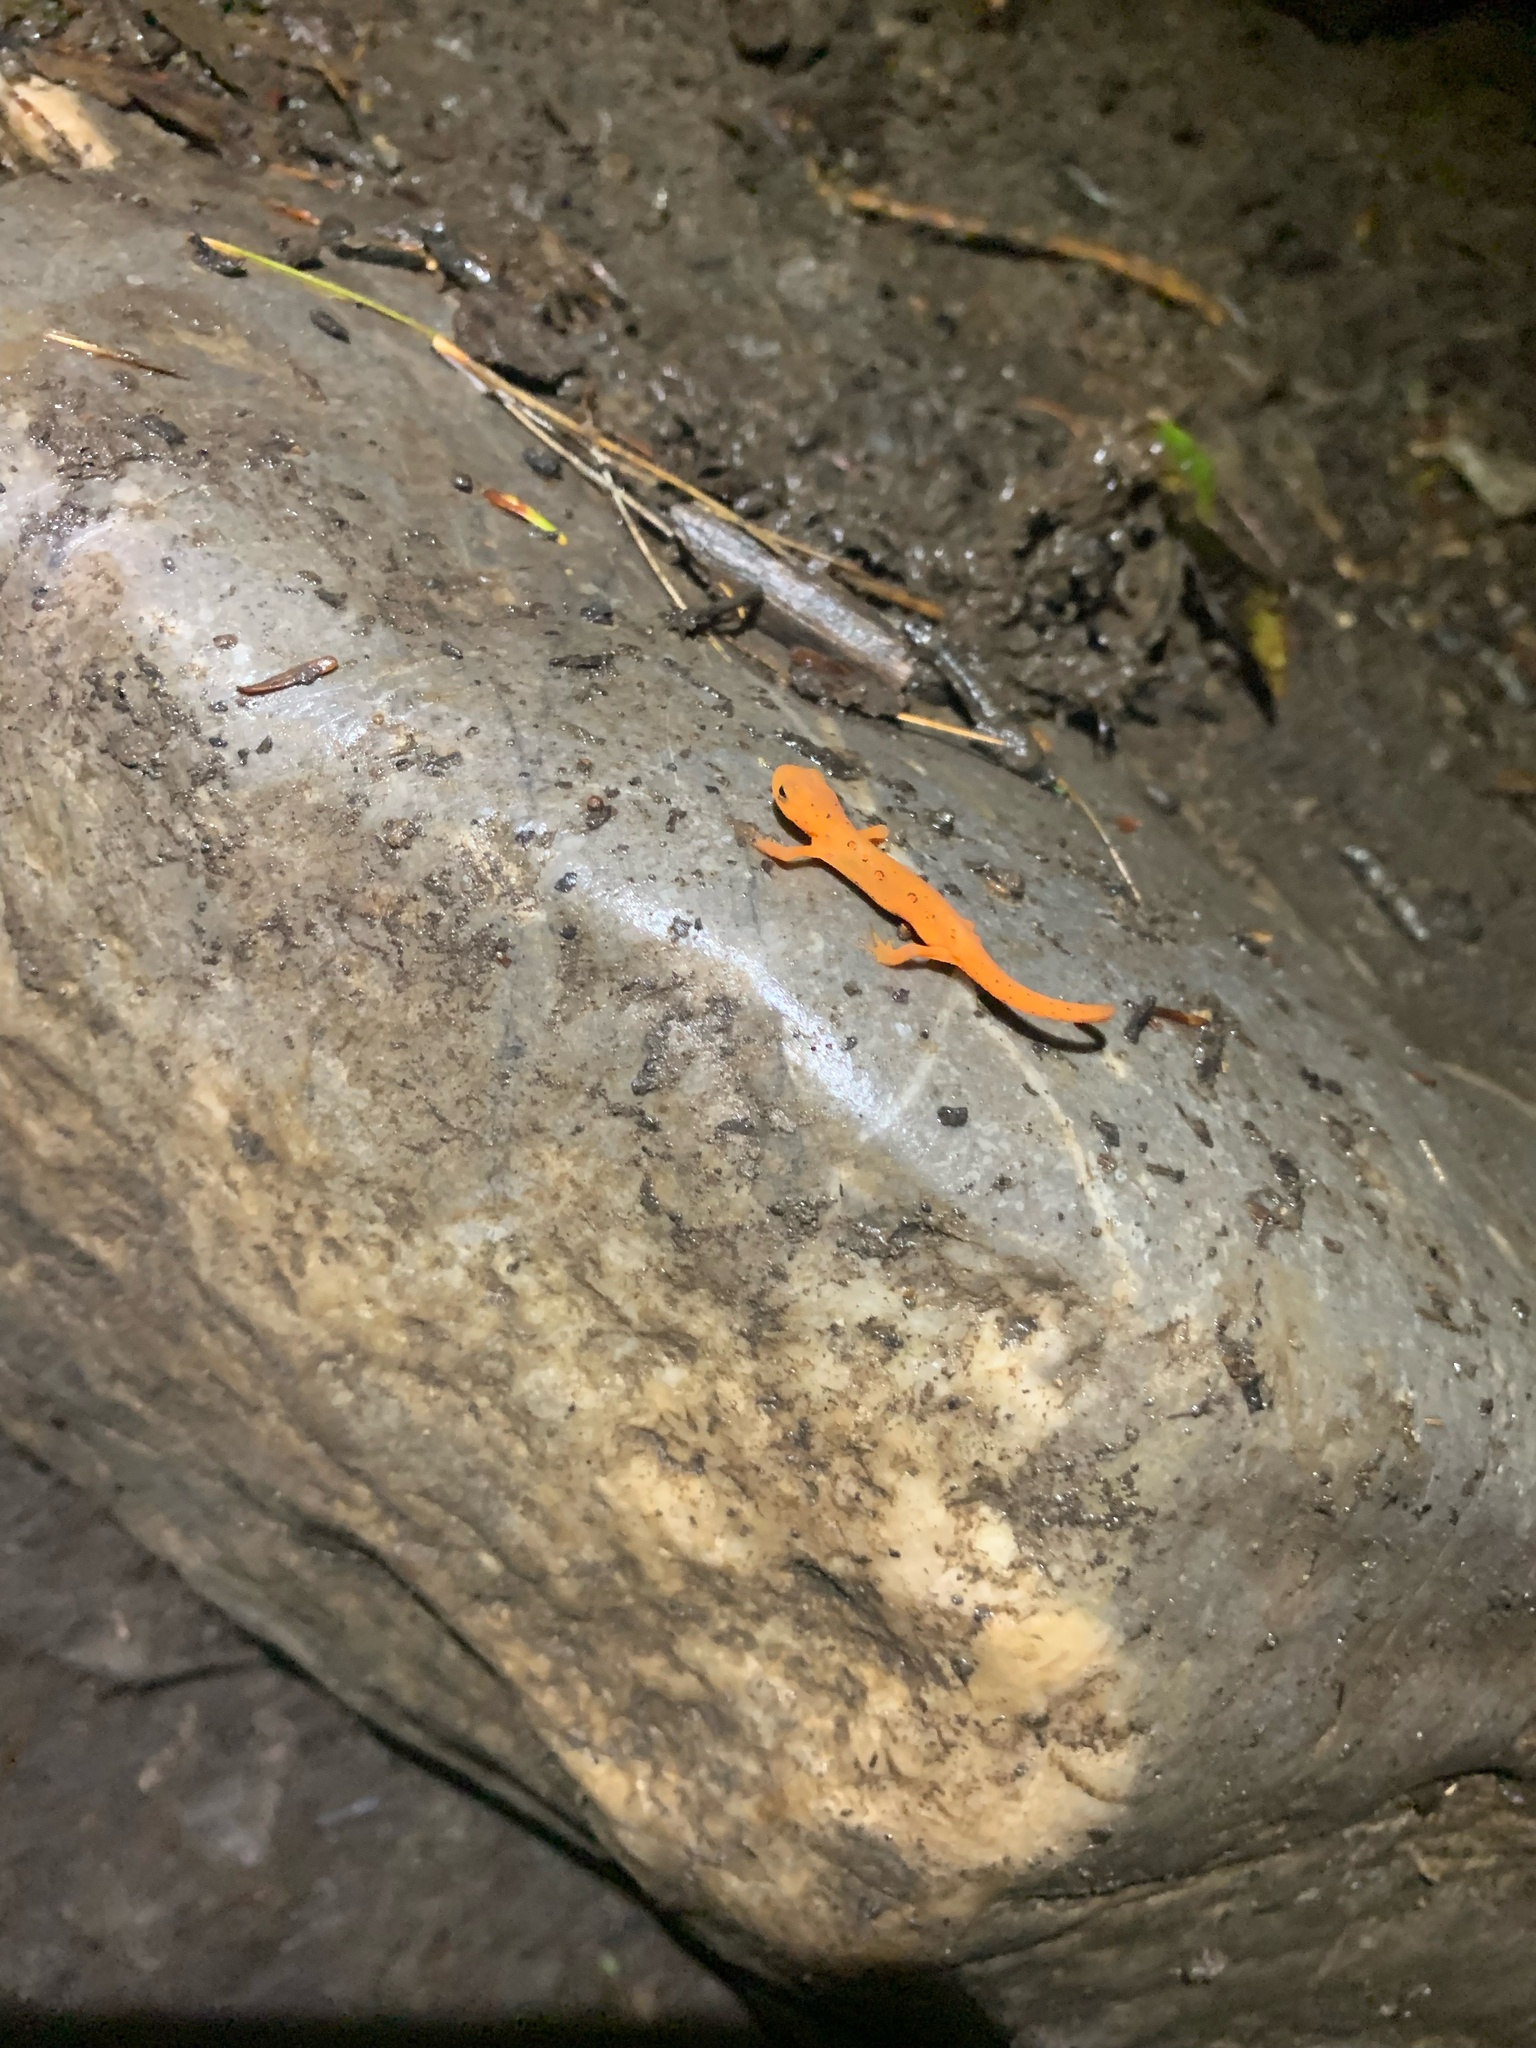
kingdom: Animalia
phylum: Chordata
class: Amphibia
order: Caudata
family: Salamandridae
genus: Notophthalmus
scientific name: Notophthalmus viridescens
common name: Eastern newt
